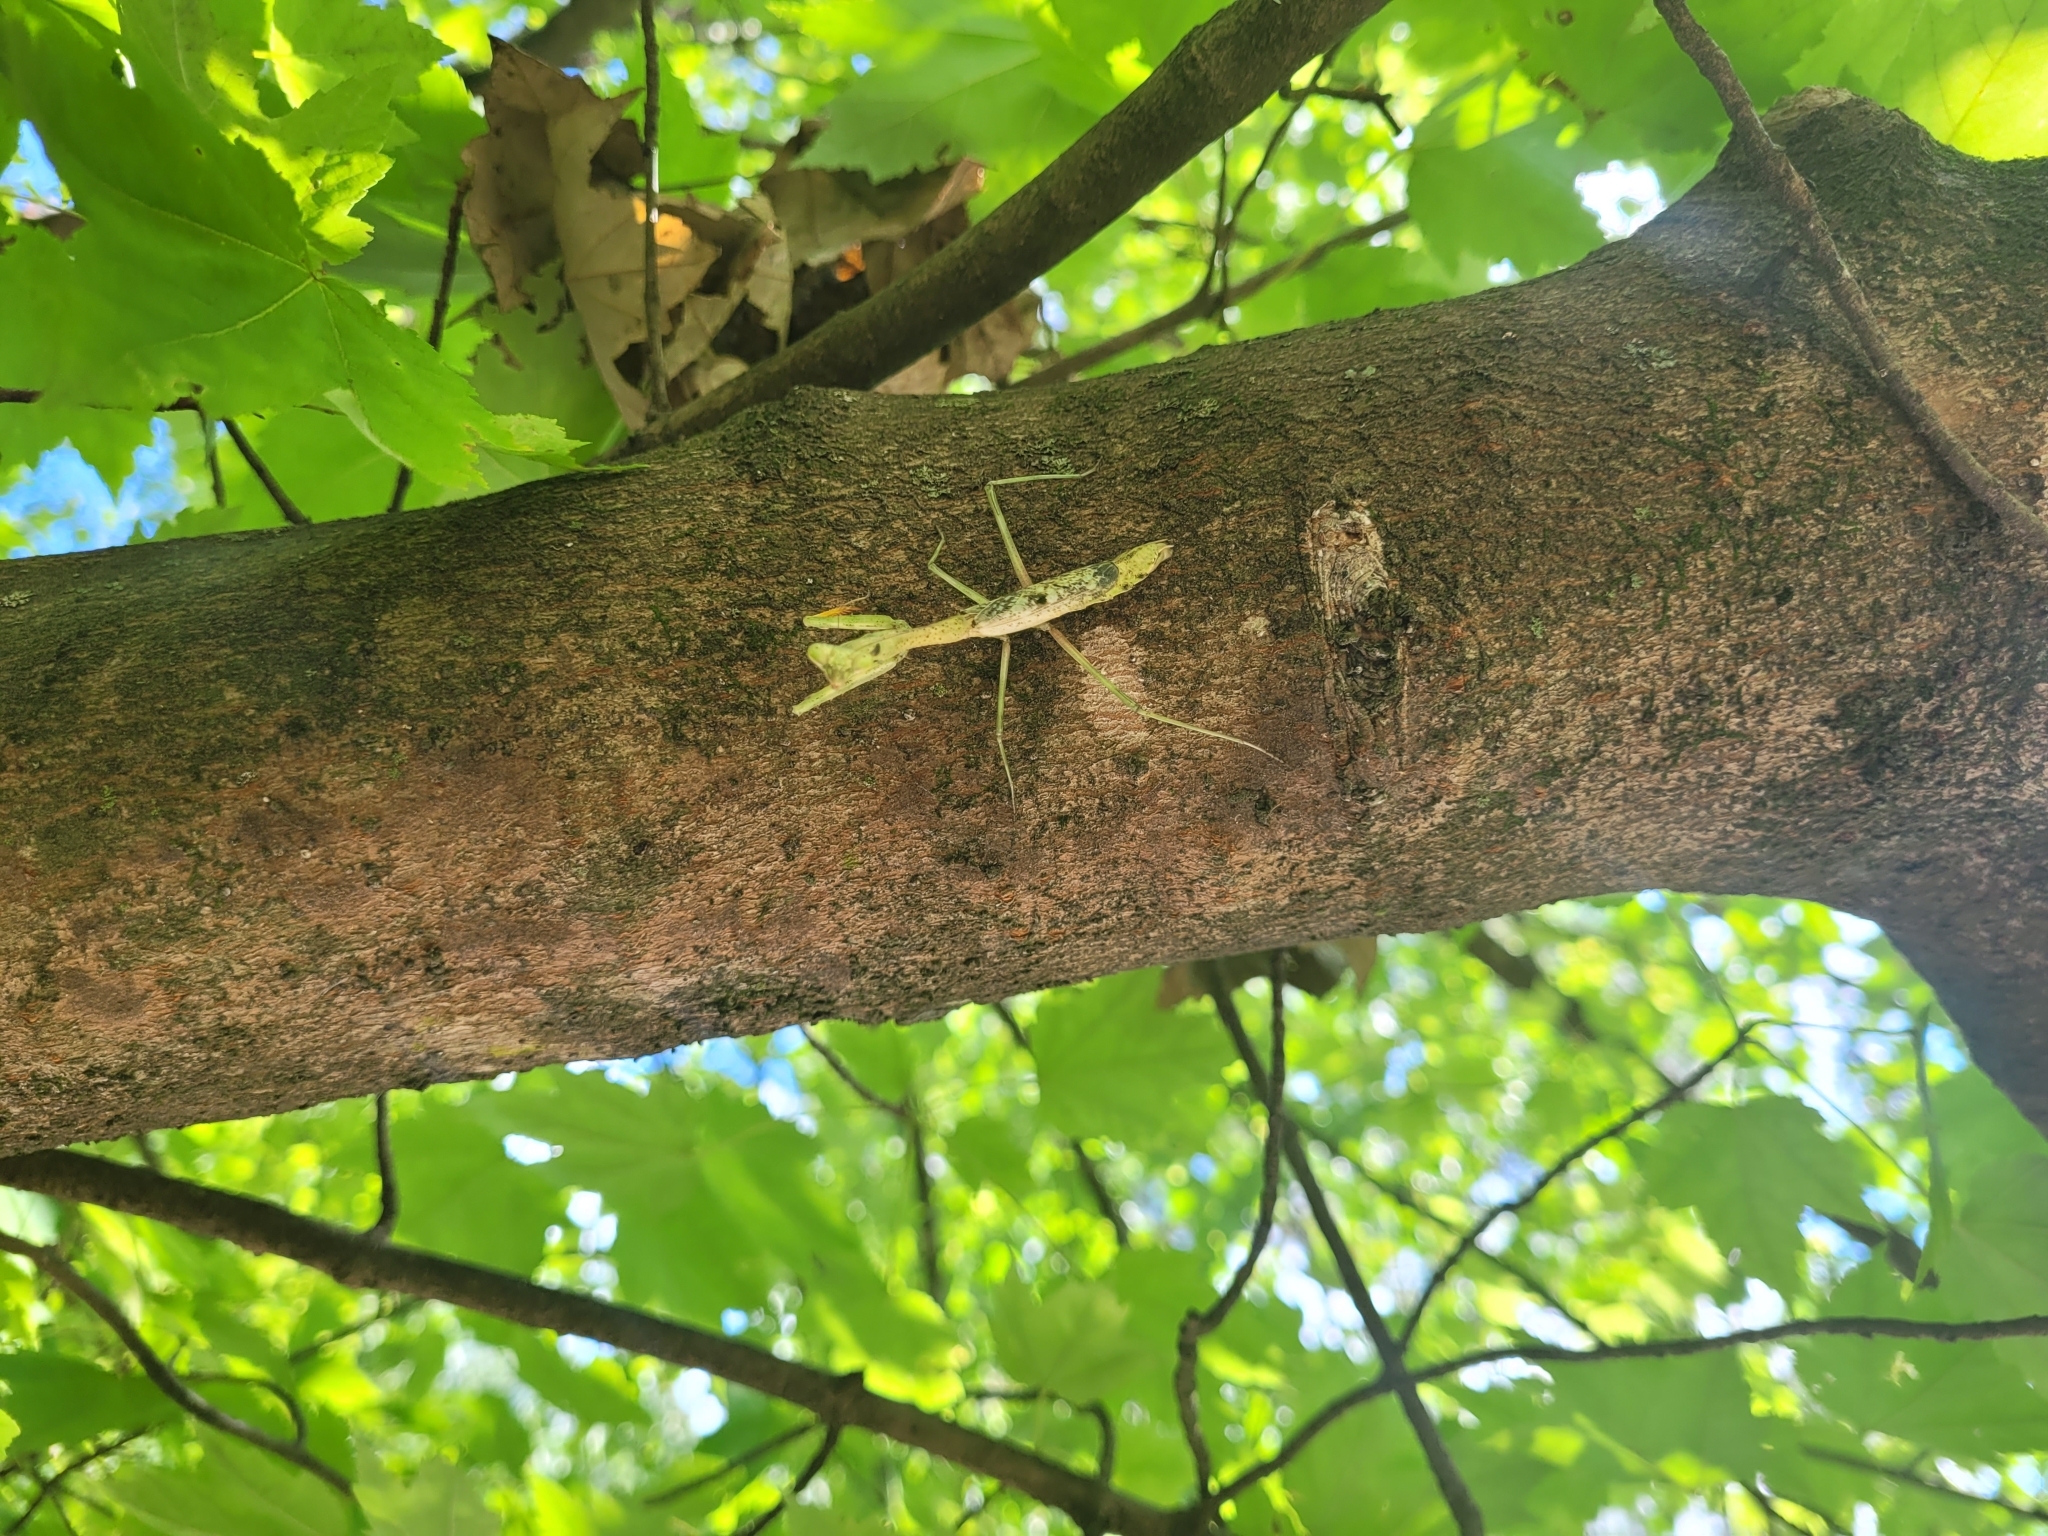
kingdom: Animalia
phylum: Arthropoda
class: Insecta
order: Mantodea
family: Mantidae
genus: Stagmomantis
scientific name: Stagmomantis carolina
